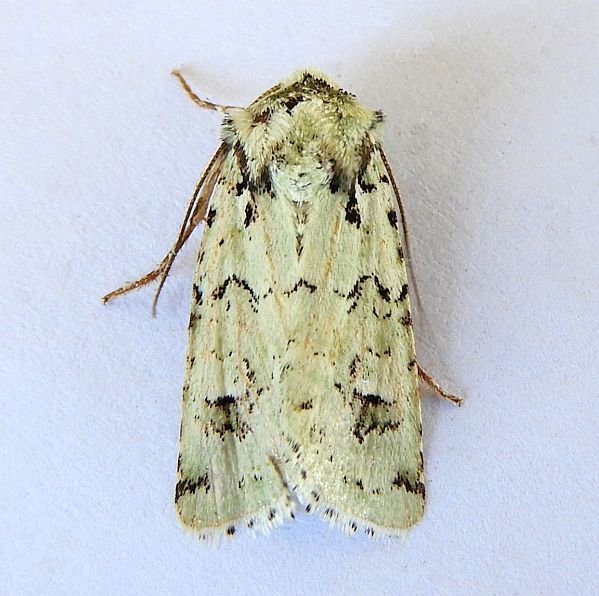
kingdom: Animalia
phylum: Arthropoda
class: Insecta
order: Lepidoptera
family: Noctuidae
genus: Lacinipolia
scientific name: Lacinipolia runica
